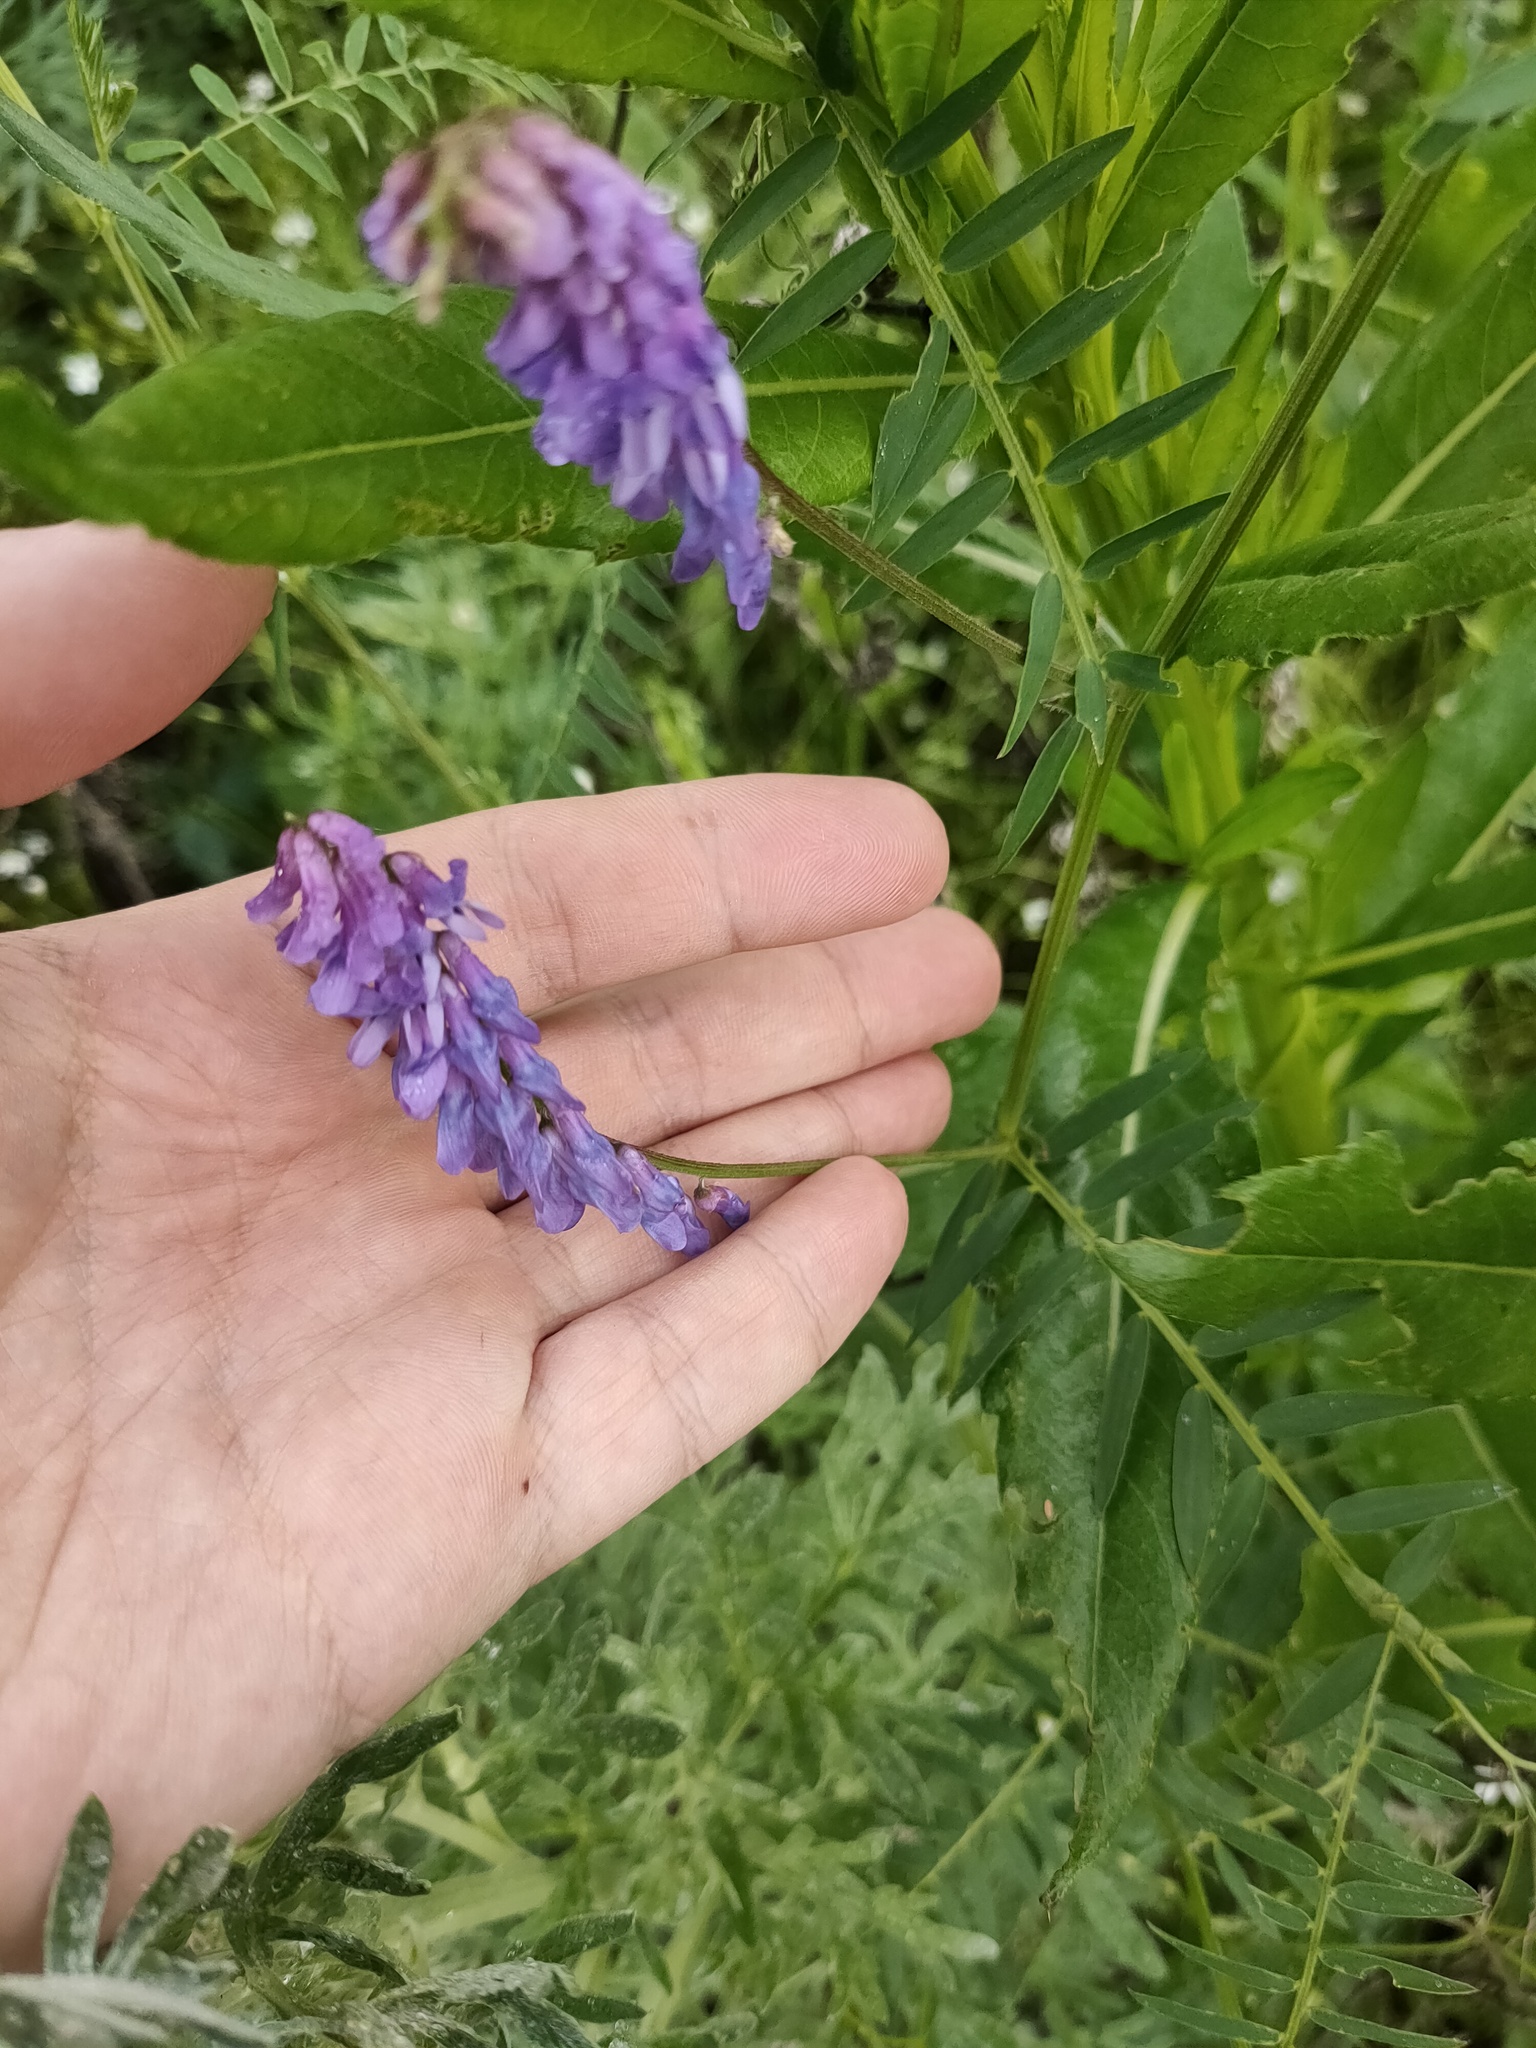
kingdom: Plantae
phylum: Tracheophyta
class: Magnoliopsida
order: Fabales
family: Fabaceae
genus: Vicia
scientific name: Vicia cracca
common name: Bird vetch
